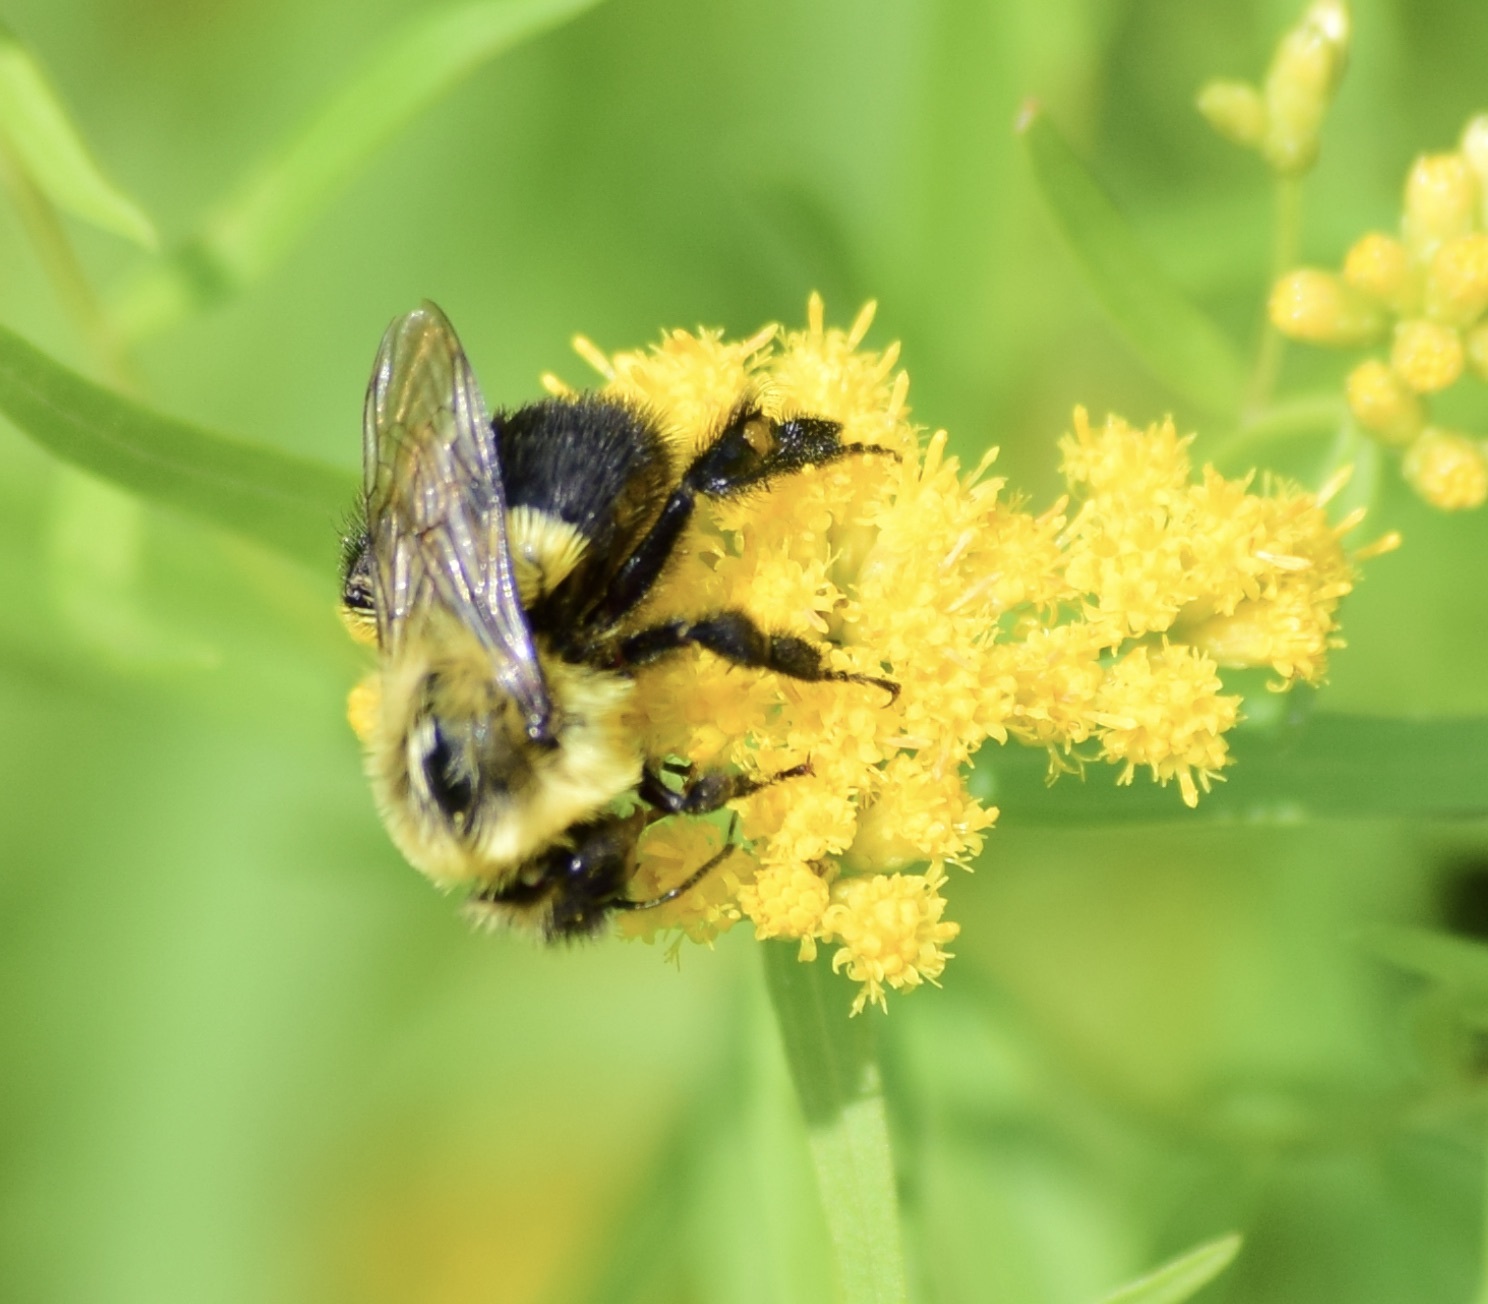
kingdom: Animalia
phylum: Arthropoda
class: Insecta
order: Hymenoptera
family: Apidae
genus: Bombus
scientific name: Bombus impatiens
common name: Common eastern bumble bee
